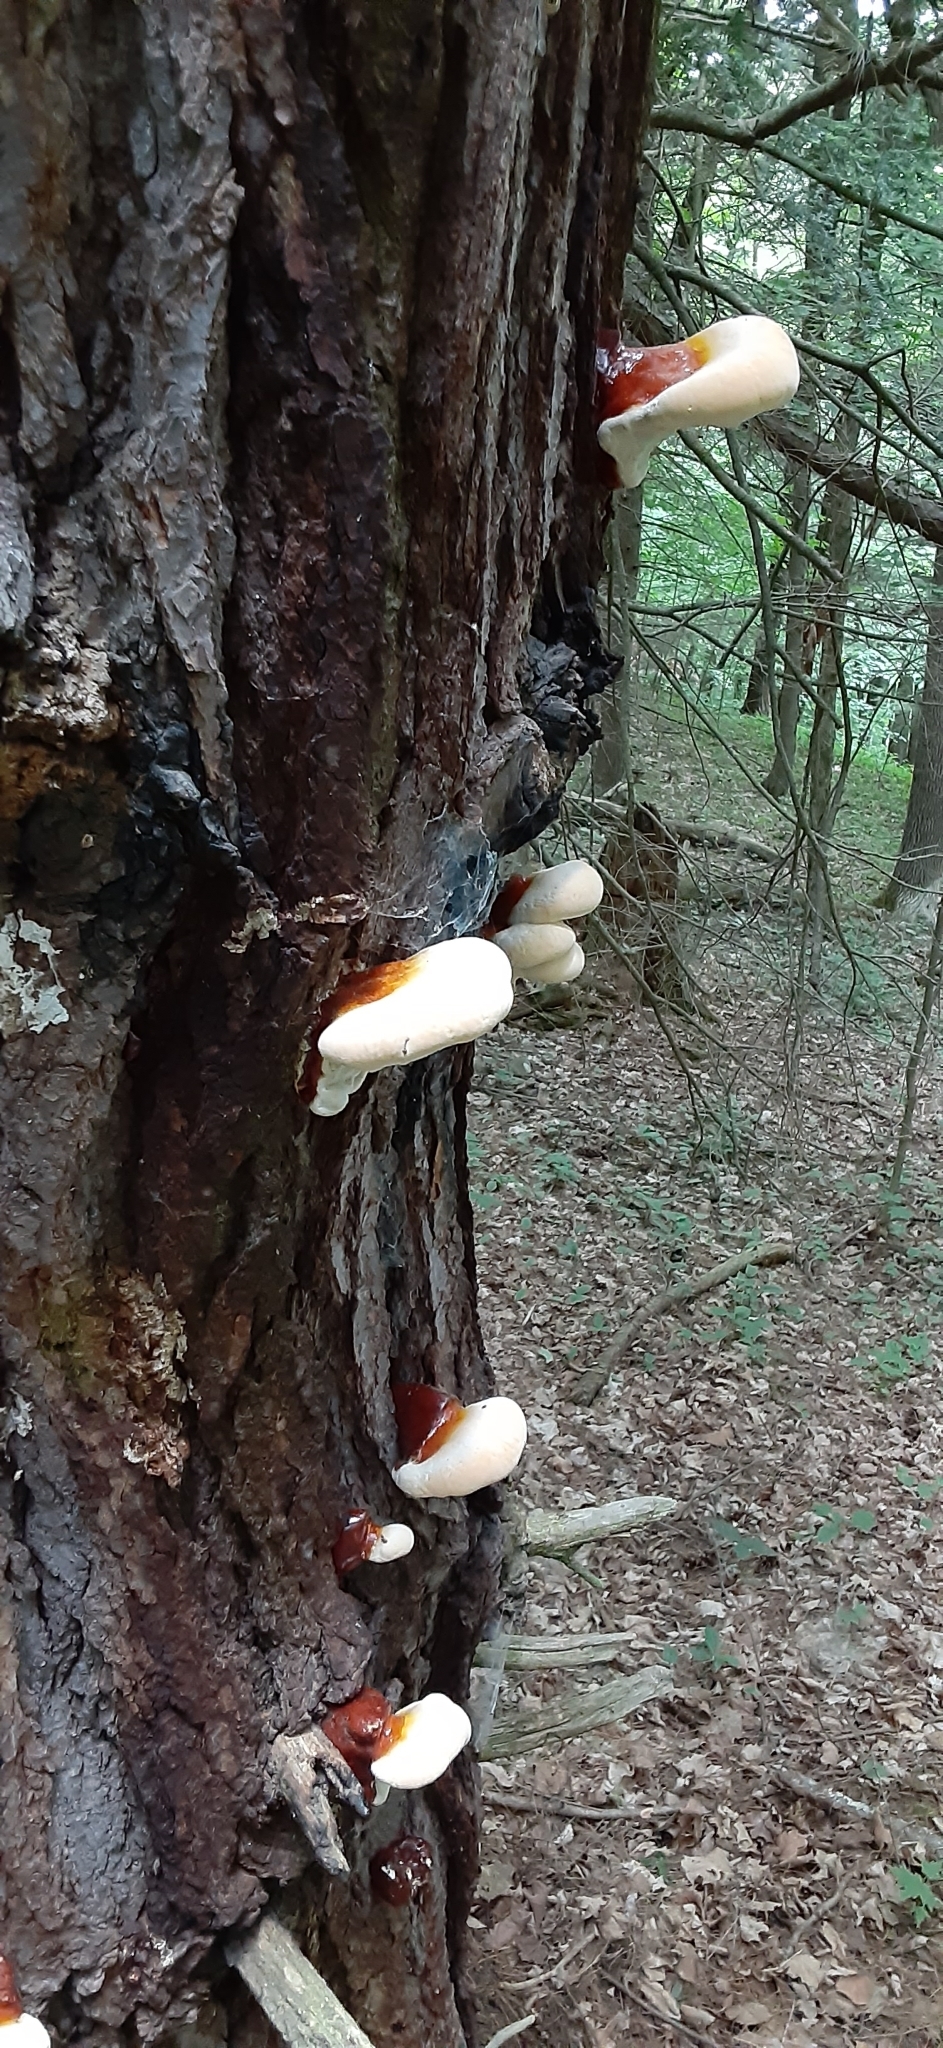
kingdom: Fungi
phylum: Basidiomycota
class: Agaricomycetes
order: Polyporales
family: Polyporaceae
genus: Ganoderma
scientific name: Ganoderma tsugae
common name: Hemlock varnish shelf
